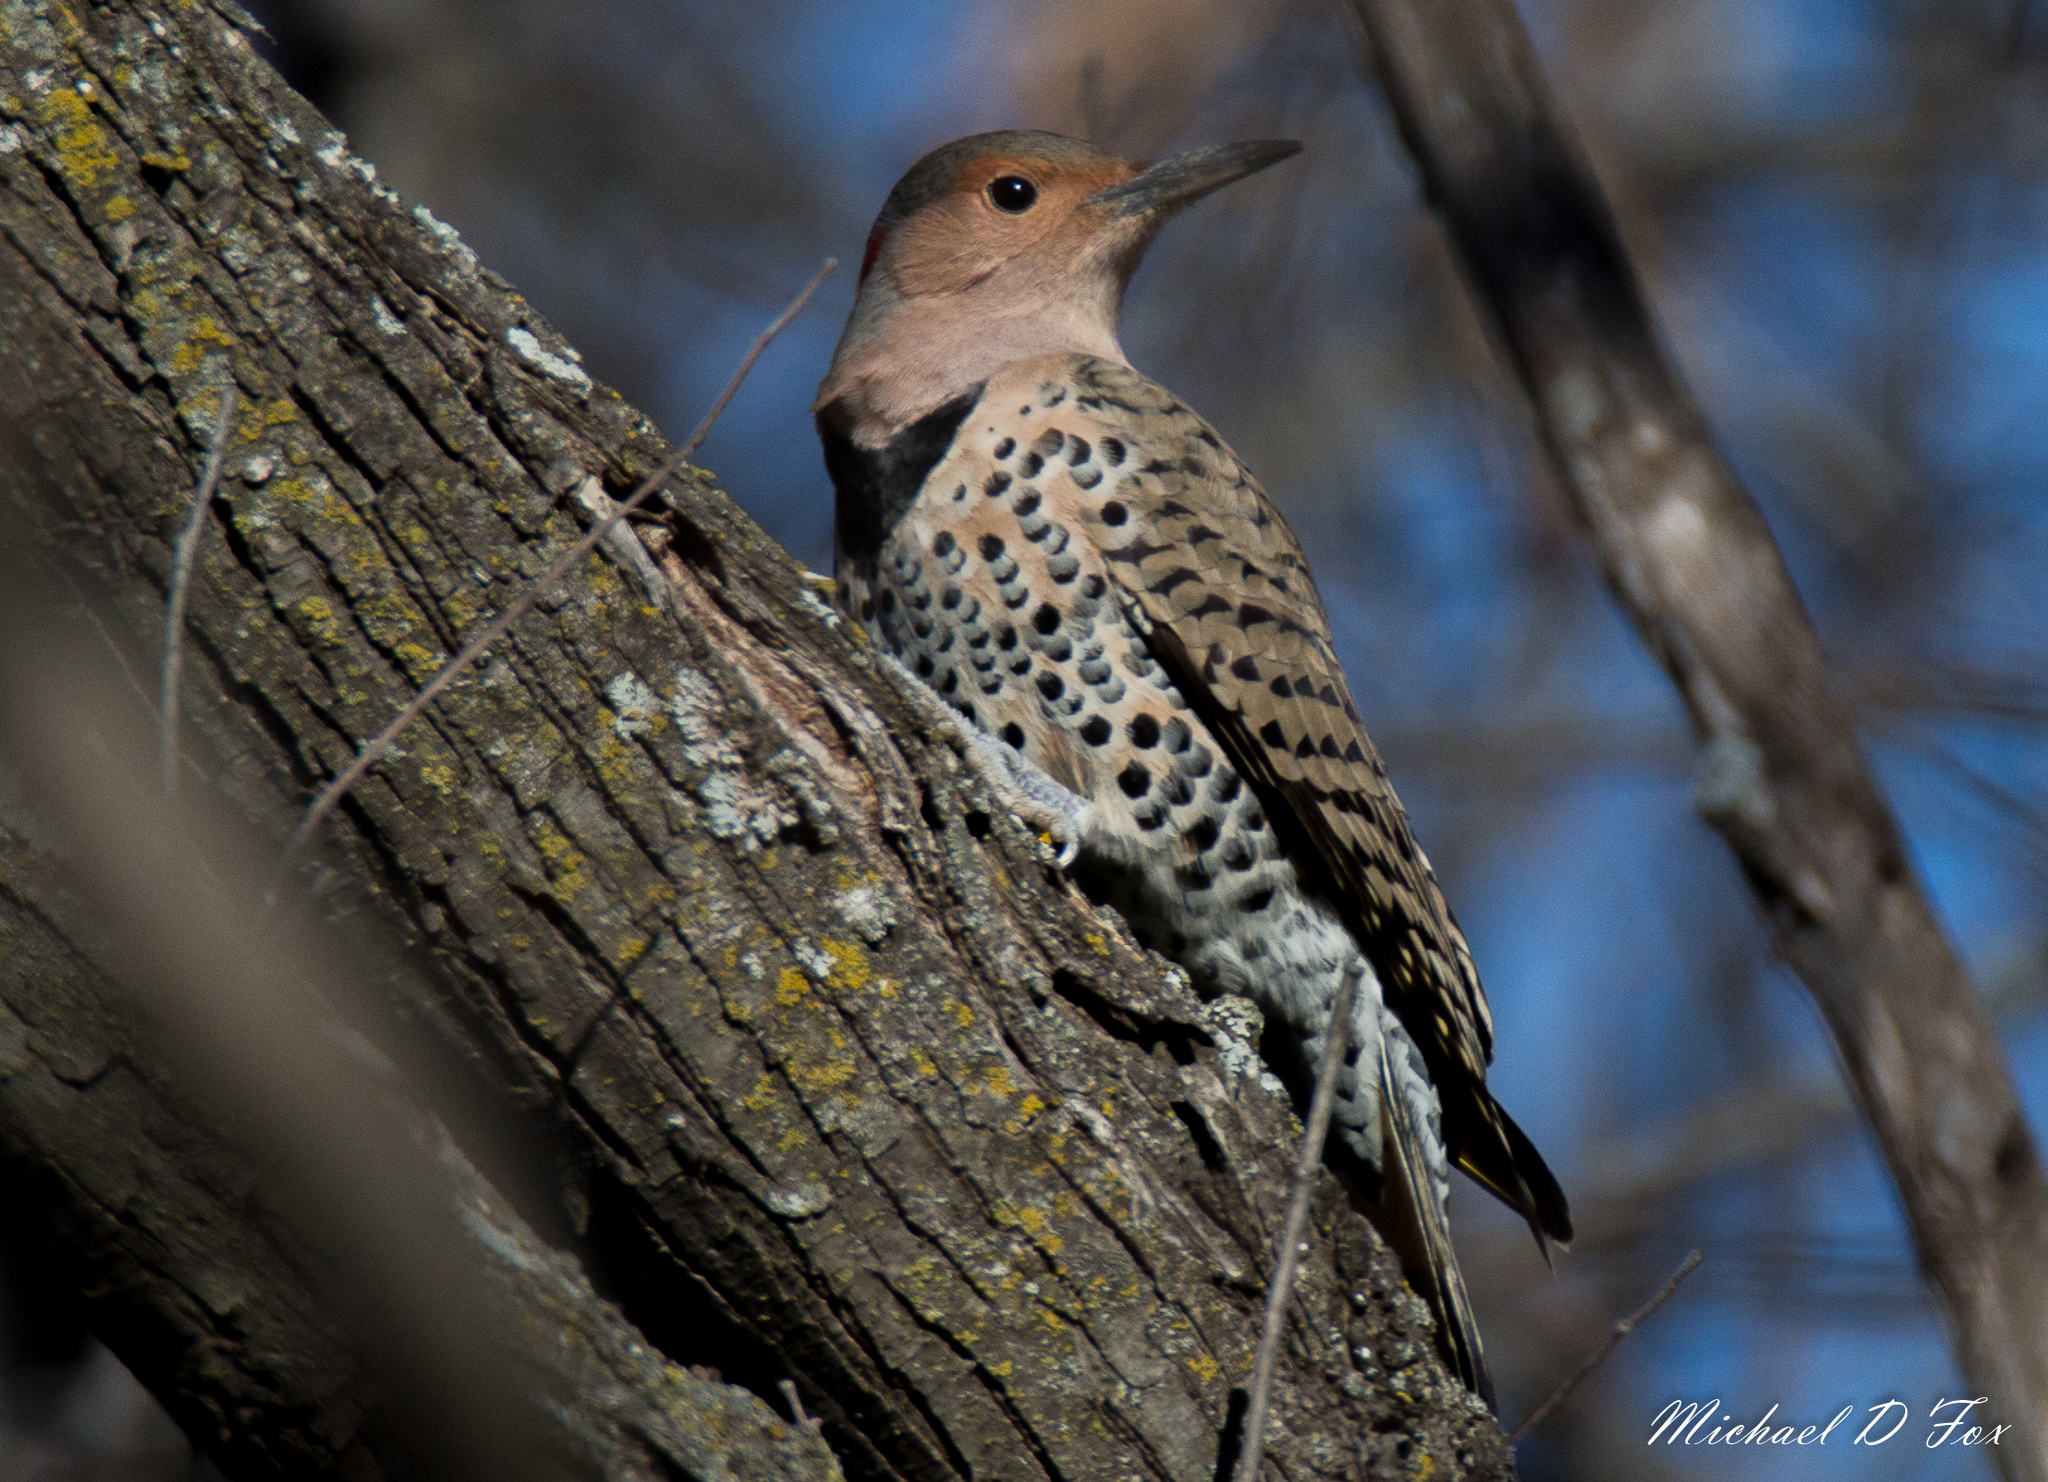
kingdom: Animalia
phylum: Chordata
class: Aves
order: Piciformes
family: Picidae
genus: Colaptes
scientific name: Colaptes auratus
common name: Northern flicker
